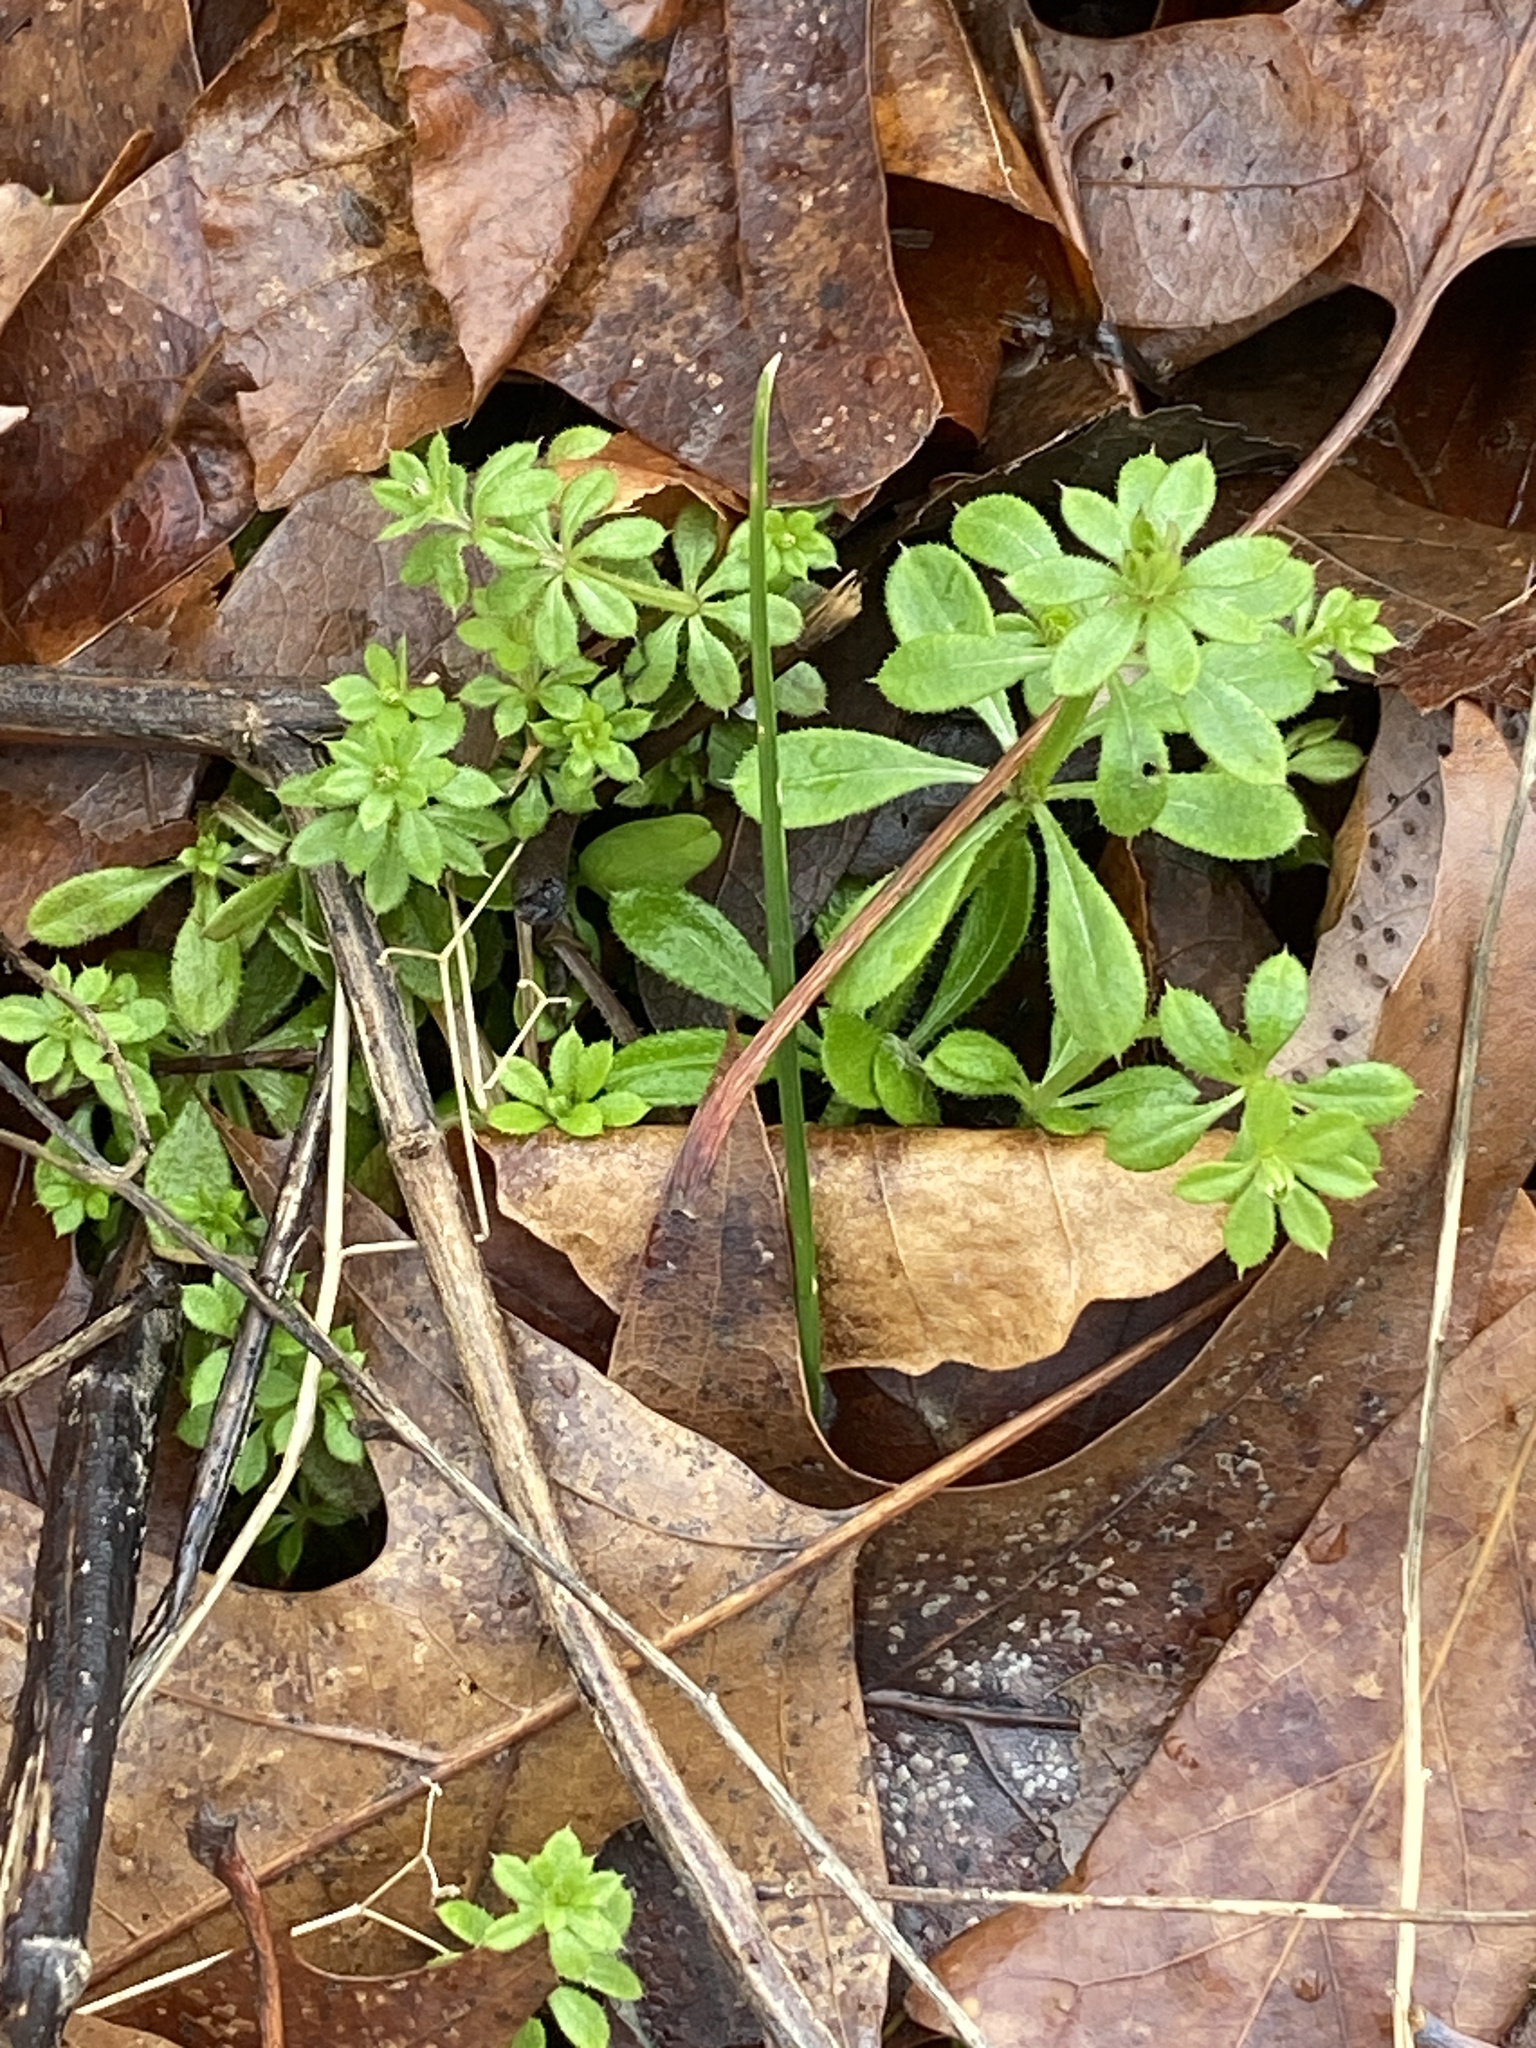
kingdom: Plantae
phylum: Tracheophyta
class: Magnoliopsida
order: Gentianales
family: Rubiaceae
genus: Galium
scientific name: Galium aparine
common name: Cleavers
